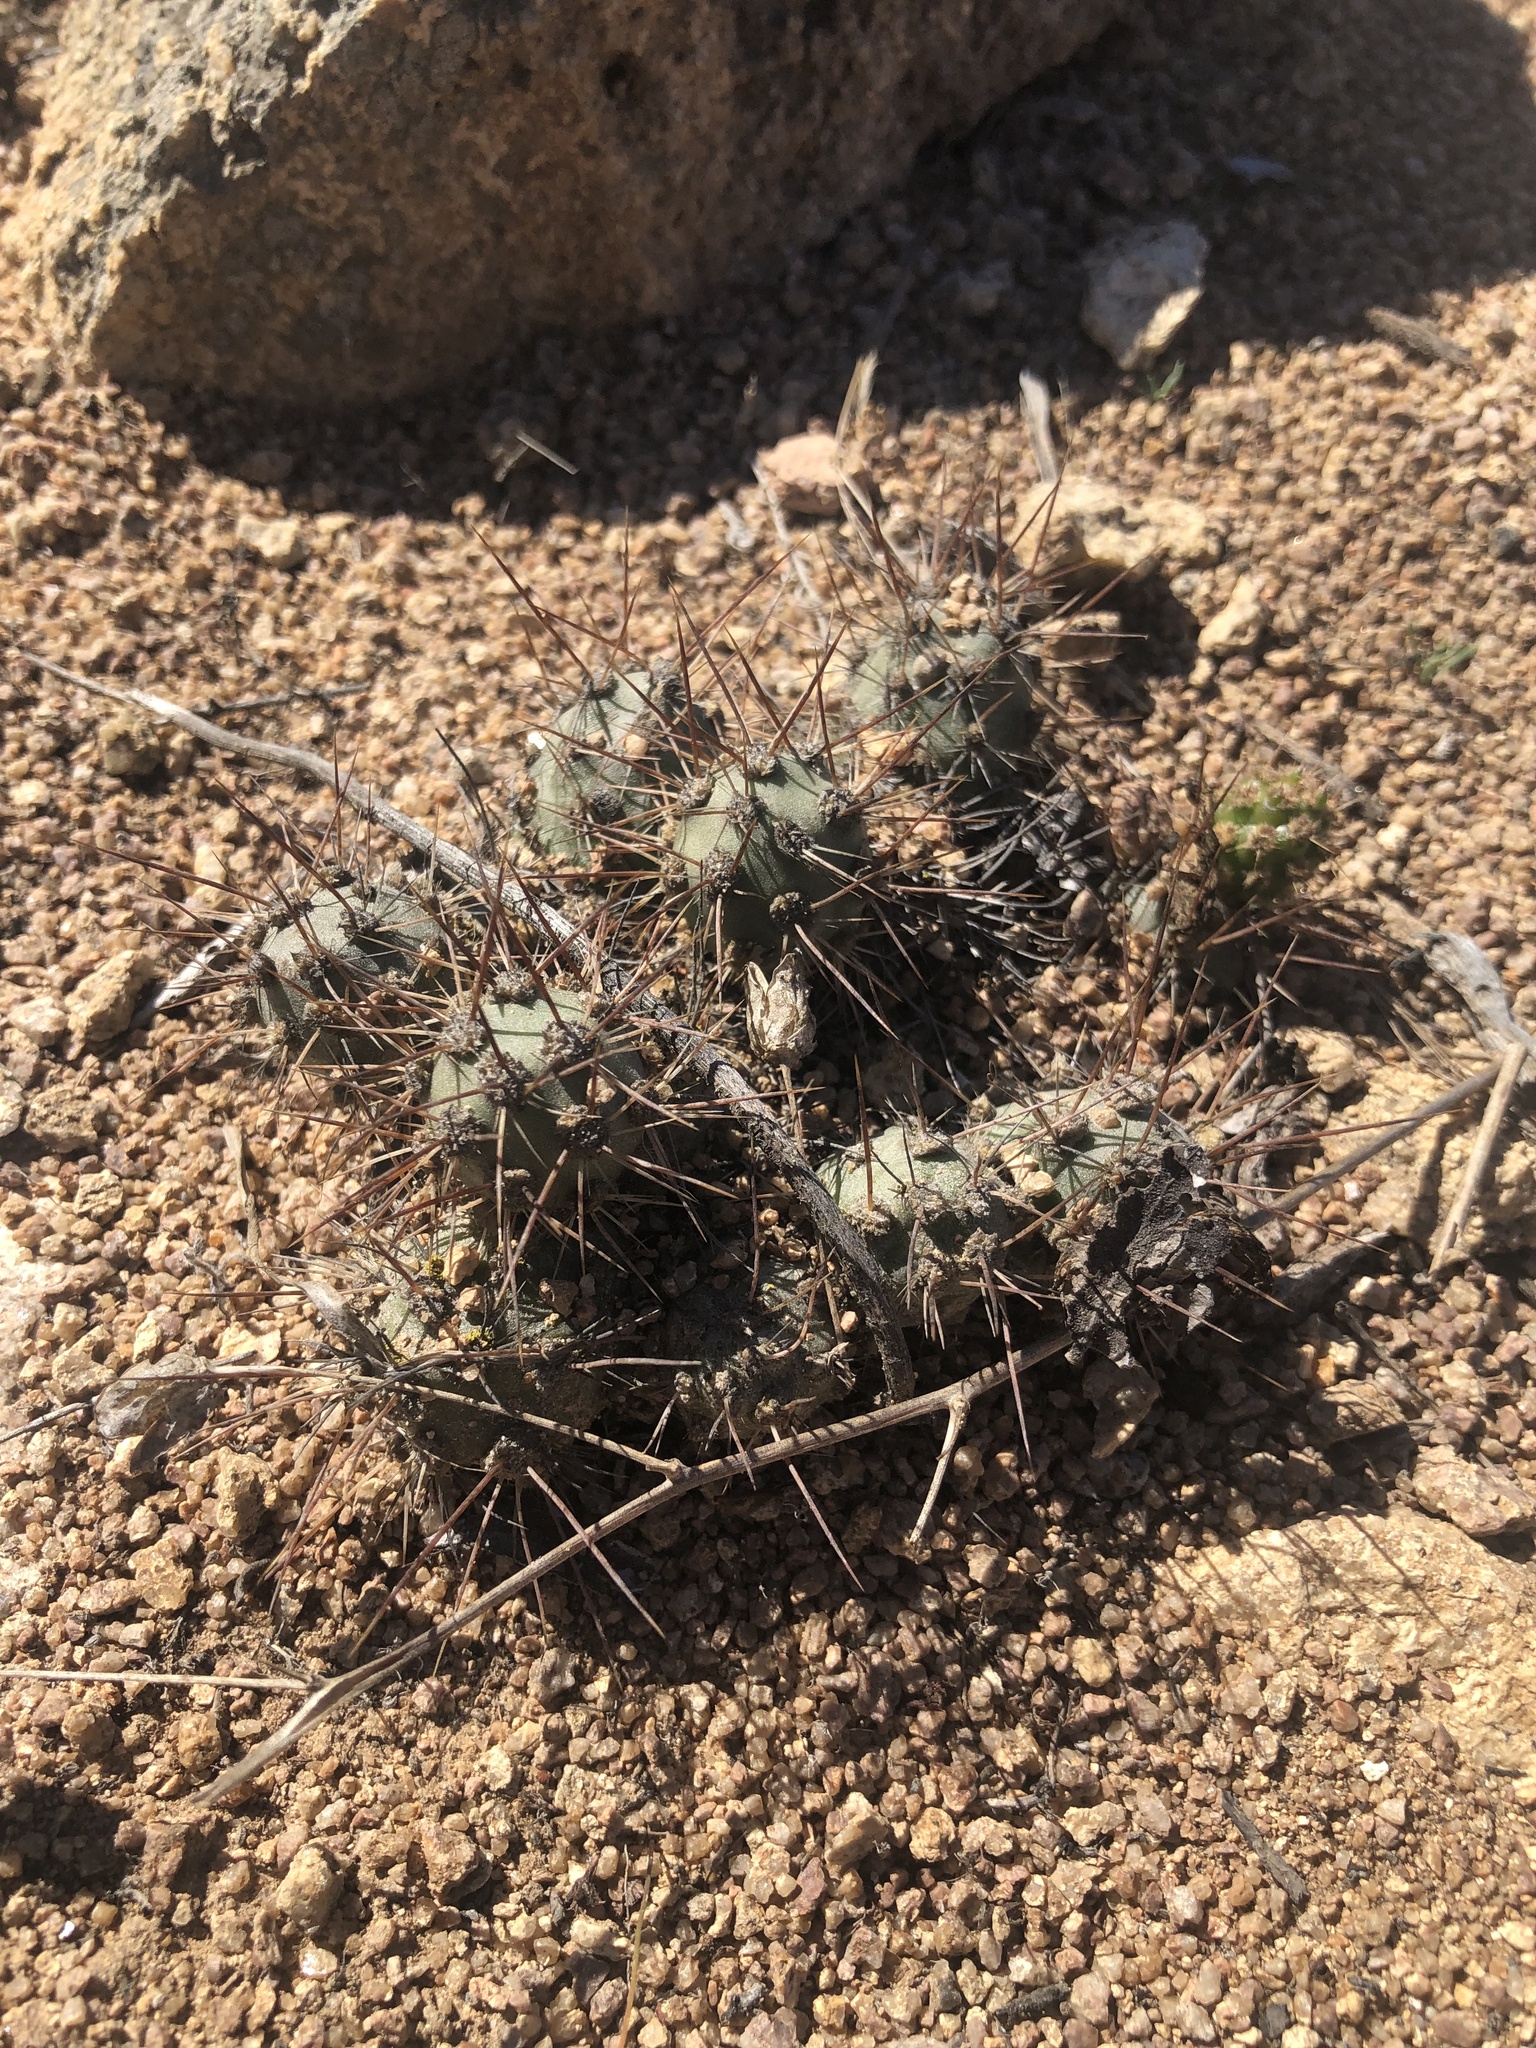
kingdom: Plantae
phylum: Tracheophyta
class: Magnoliopsida
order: Caryophyllales
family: Cactaceae
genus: Cumulopuntia
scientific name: Cumulopuntia leucophaea
